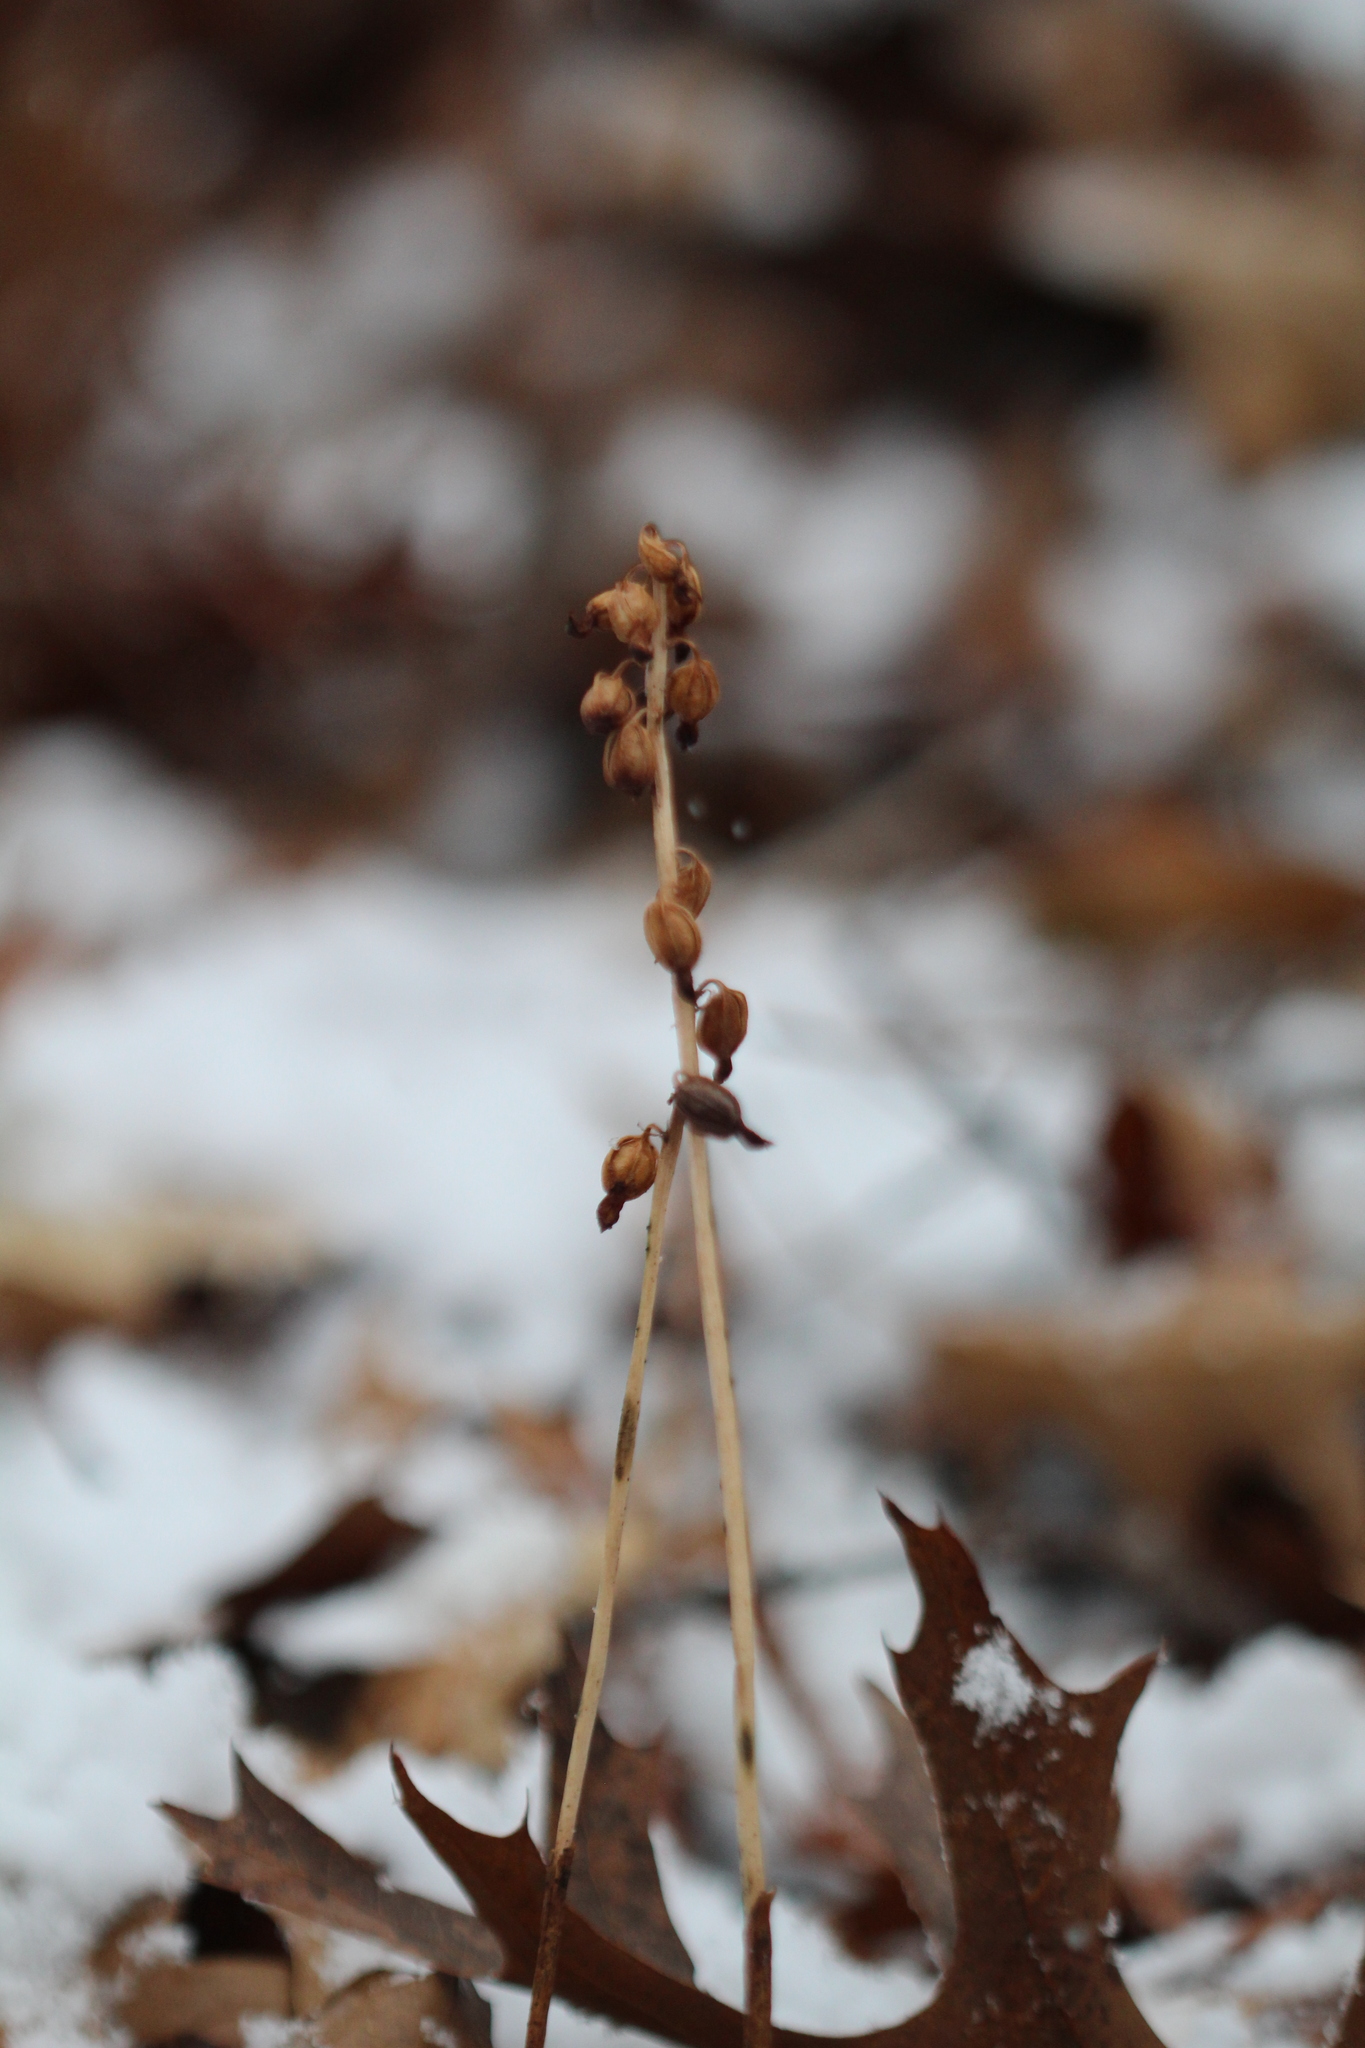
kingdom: Plantae
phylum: Tracheophyta
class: Liliopsida
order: Asparagales
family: Orchidaceae
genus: Corallorhiza
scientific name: Corallorhiza odontorhiza
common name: Autumn coralroot
